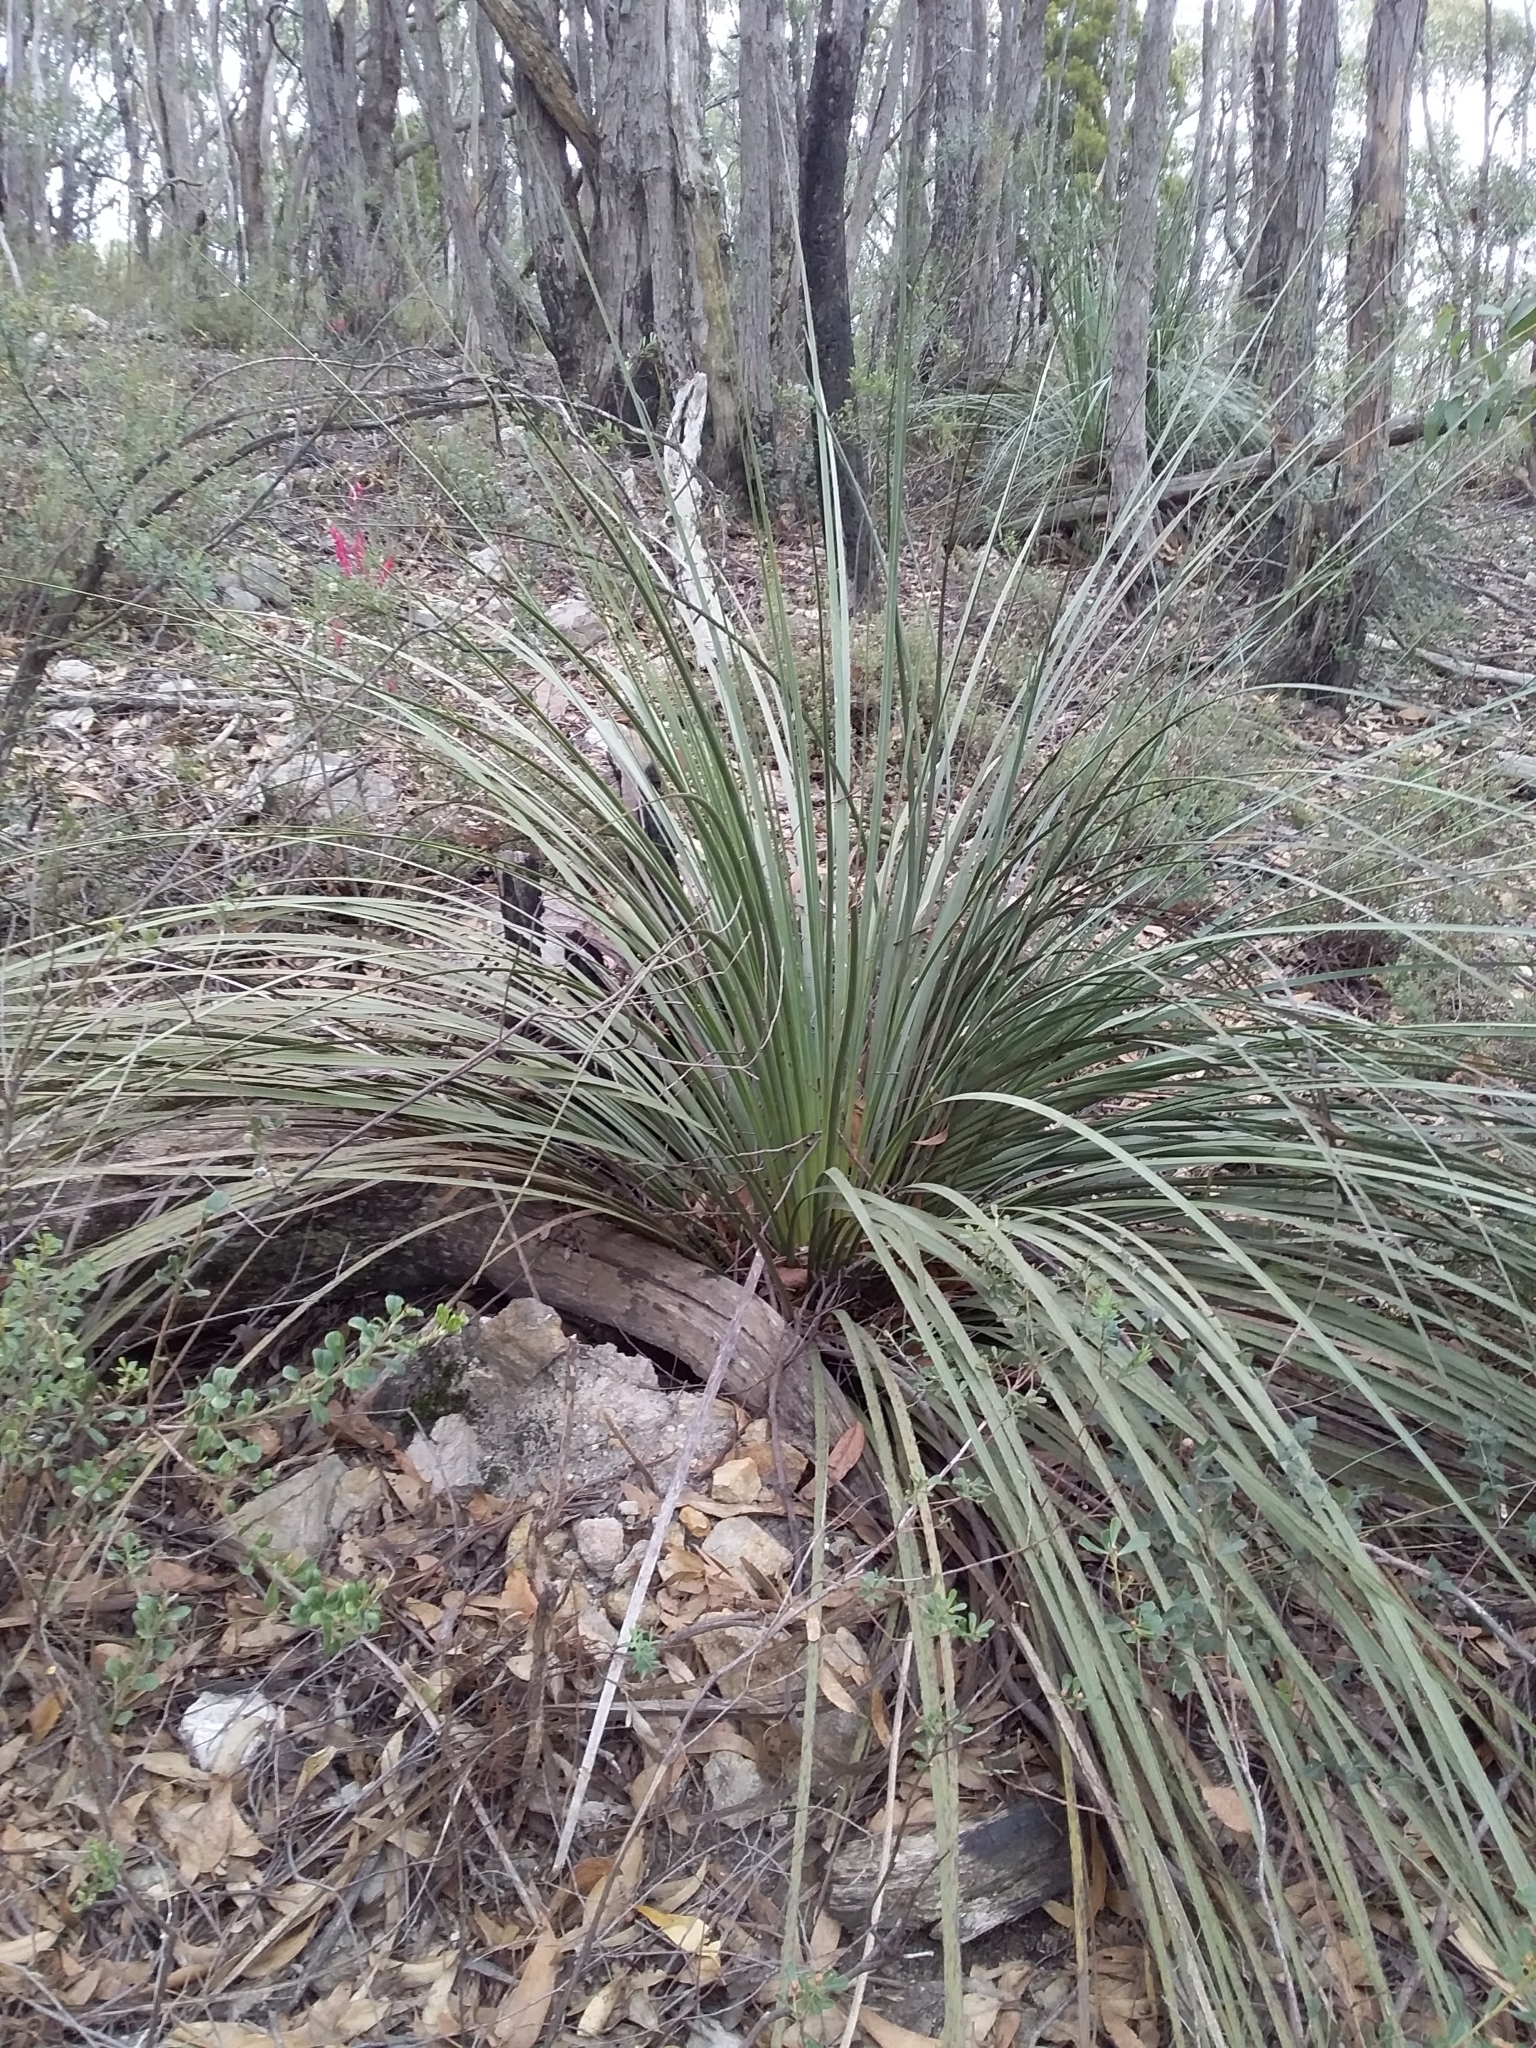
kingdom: Plantae
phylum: Tracheophyta
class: Liliopsida
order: Asparagales
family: Asphodelaceae
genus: Xanthorrhoea
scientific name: Xanthorrhoea semiplana
